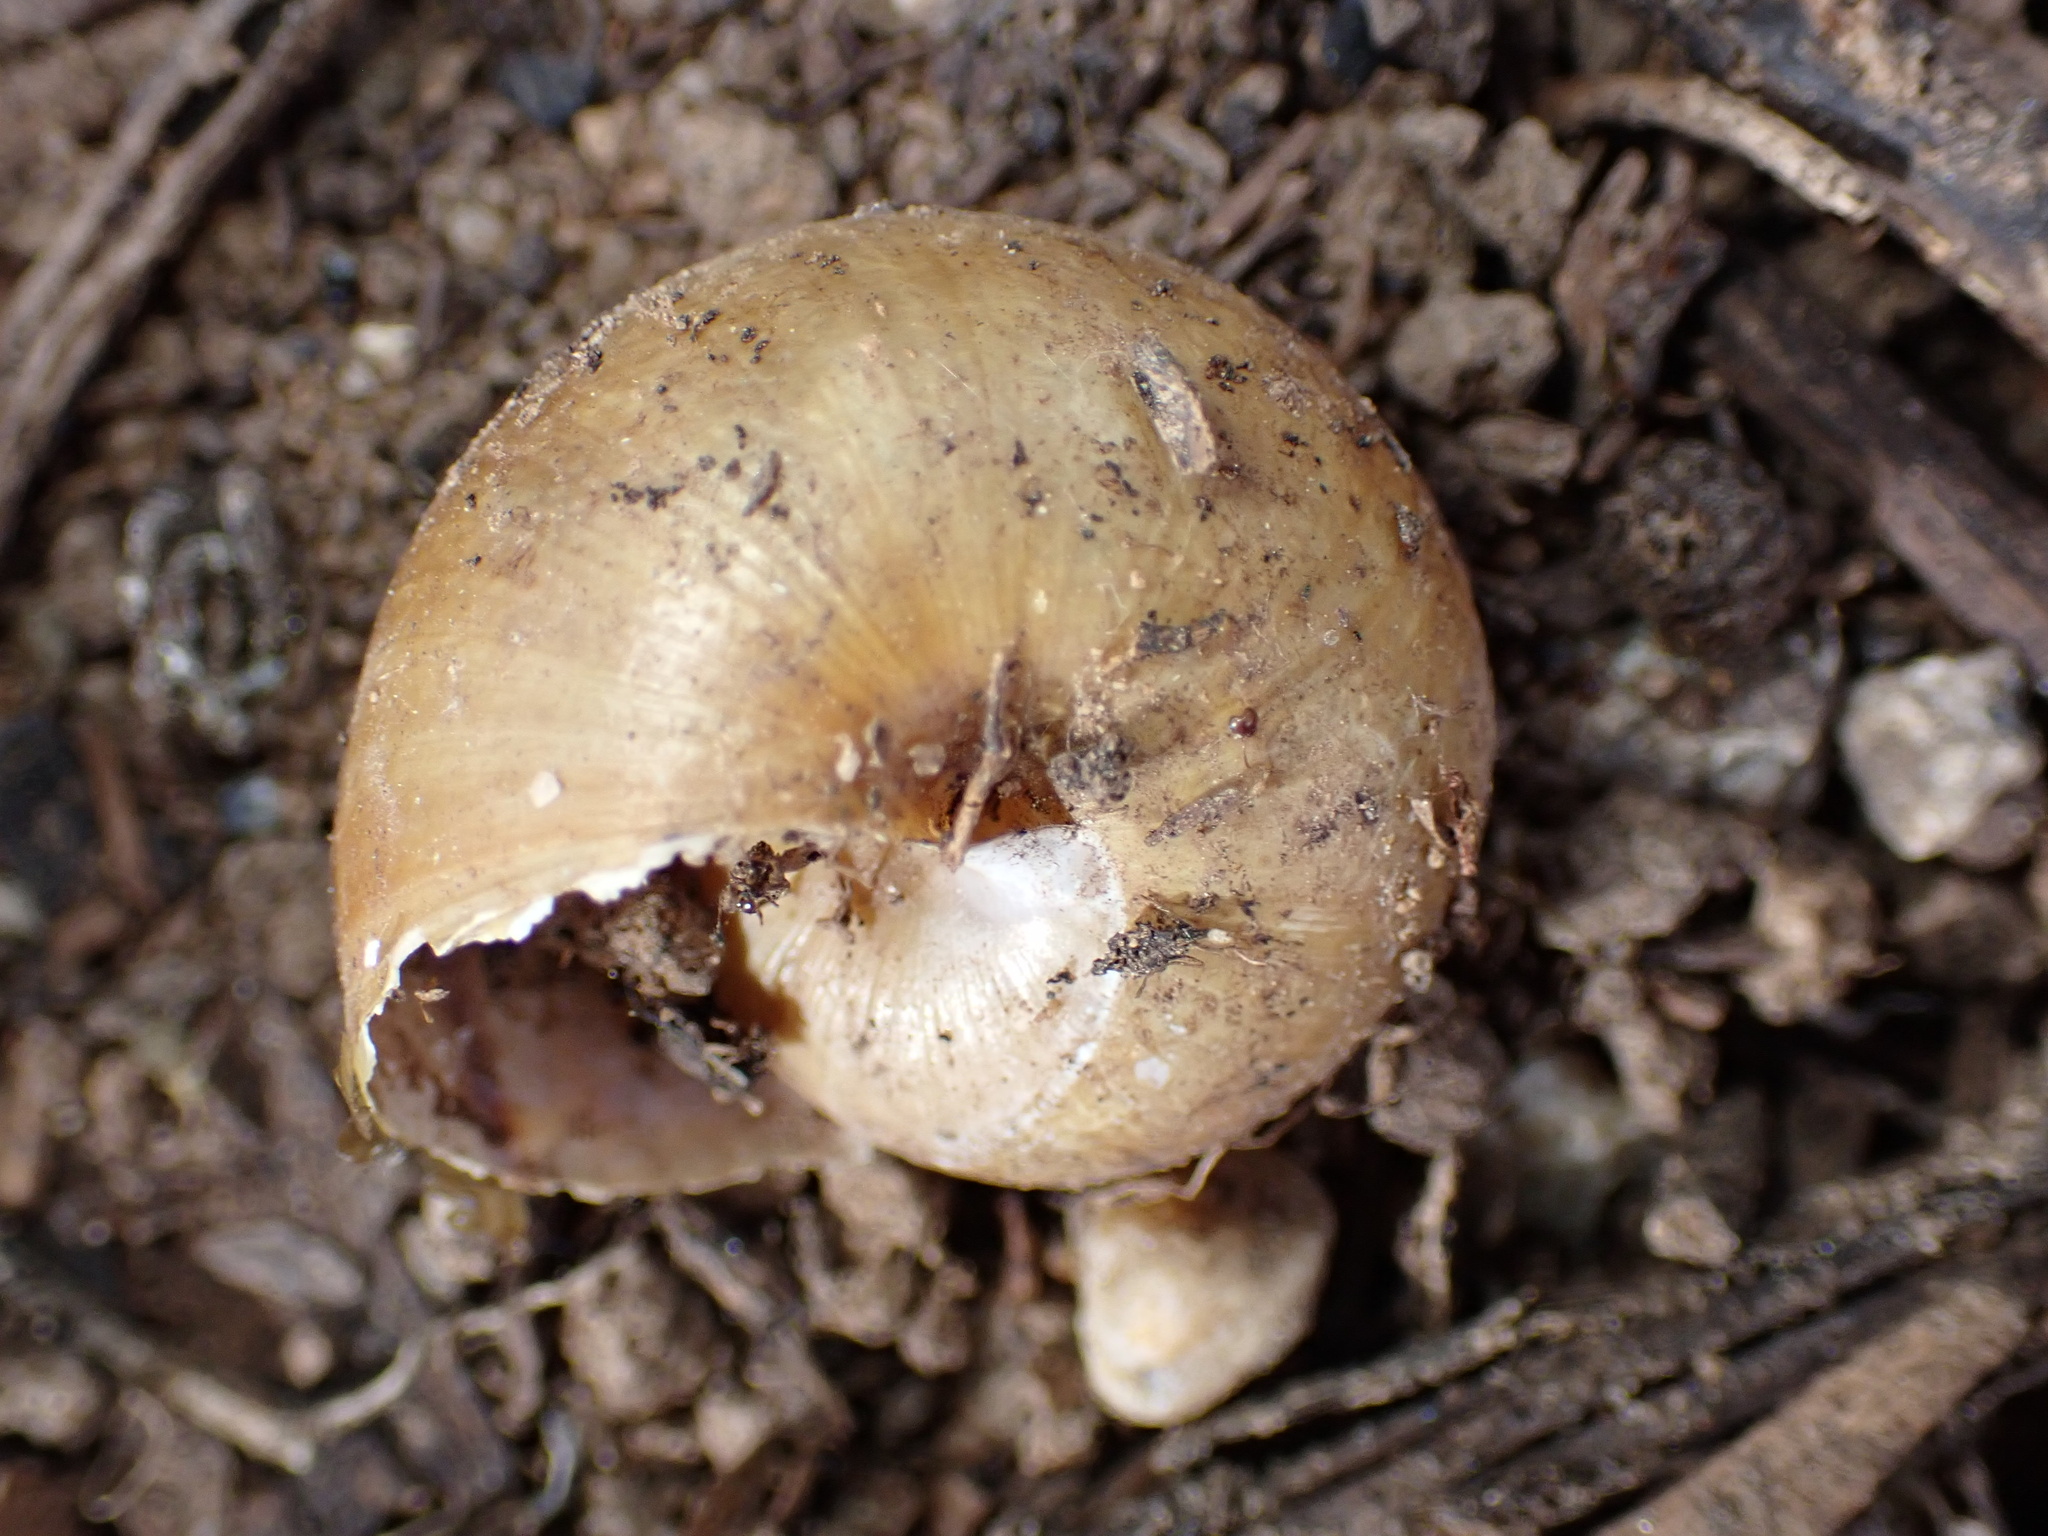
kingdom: Animalia
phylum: Mollusca
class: Gastropoda
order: Stylommatophora
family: Xanthonychidae
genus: Helminthoglypta
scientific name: Helminthoglypta tudiculata
